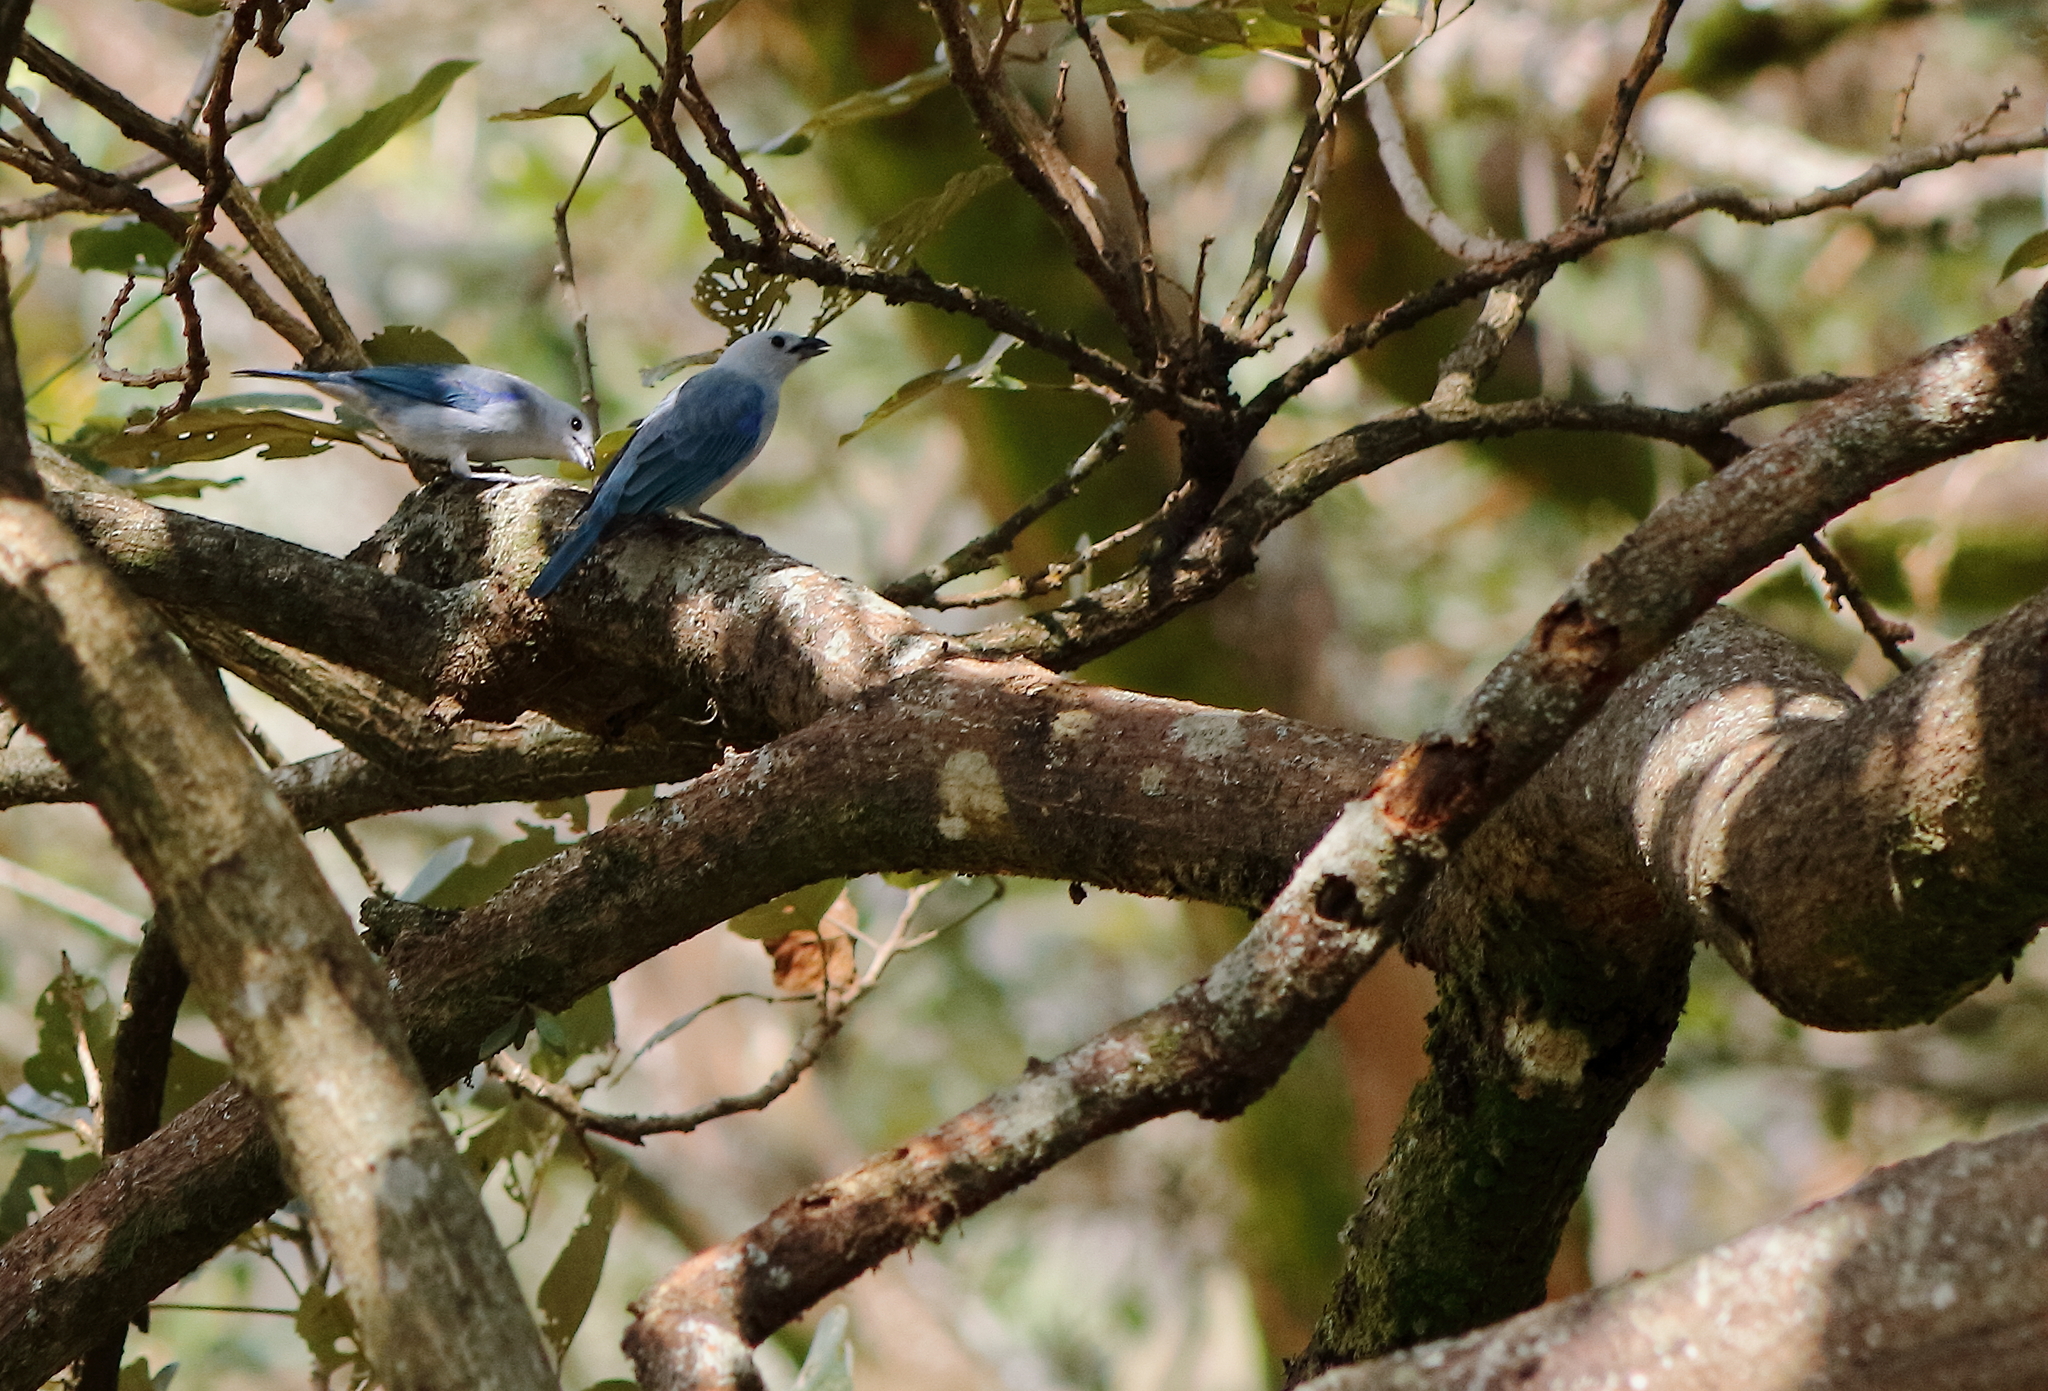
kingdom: Animalia
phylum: Chordata
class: Aves
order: Passeriformes
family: Thraupidae
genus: Thraupis
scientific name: Thraupis episcopus
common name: Blue-grey tanager
